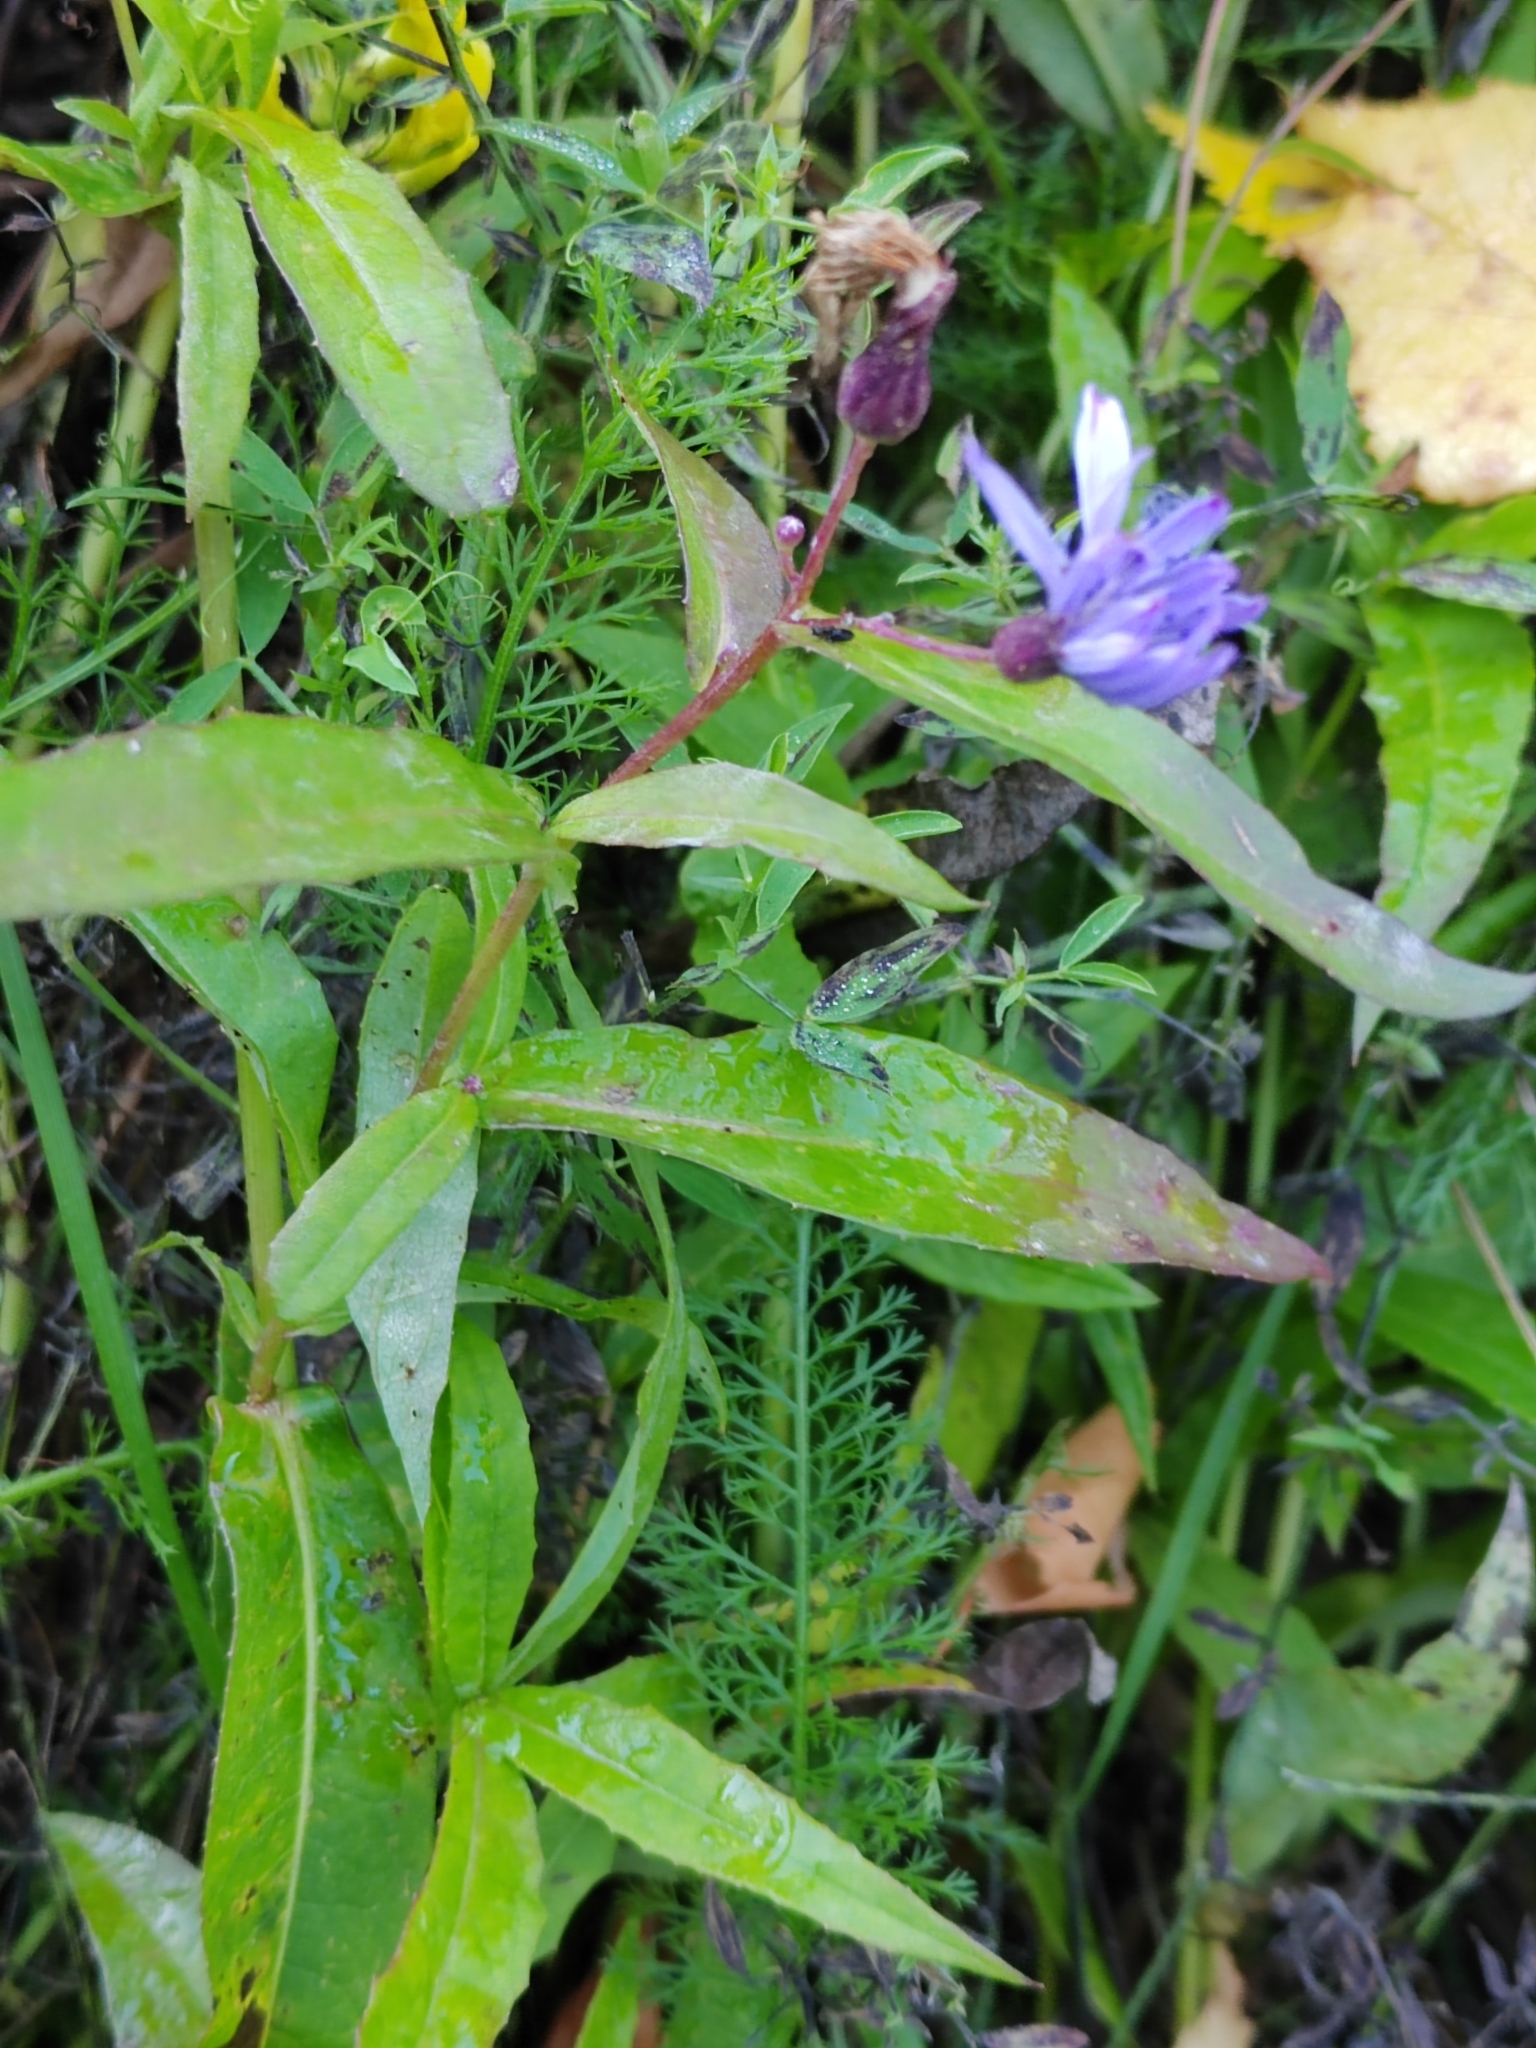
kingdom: Plantae
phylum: Tracheophyta
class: Magnoliopsida
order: Asterales
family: Asteraceae
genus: Lactuca
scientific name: Lactuca sibirica
